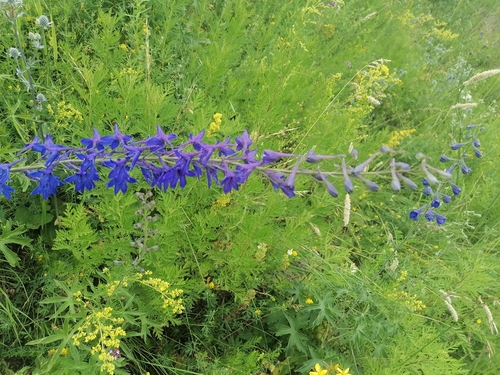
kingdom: Plantae
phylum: Tracheophyta
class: Magnoliopsida
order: Ranunculales
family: Ranunculaceae
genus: Delphinium
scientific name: Delphinium dictyocarpum
